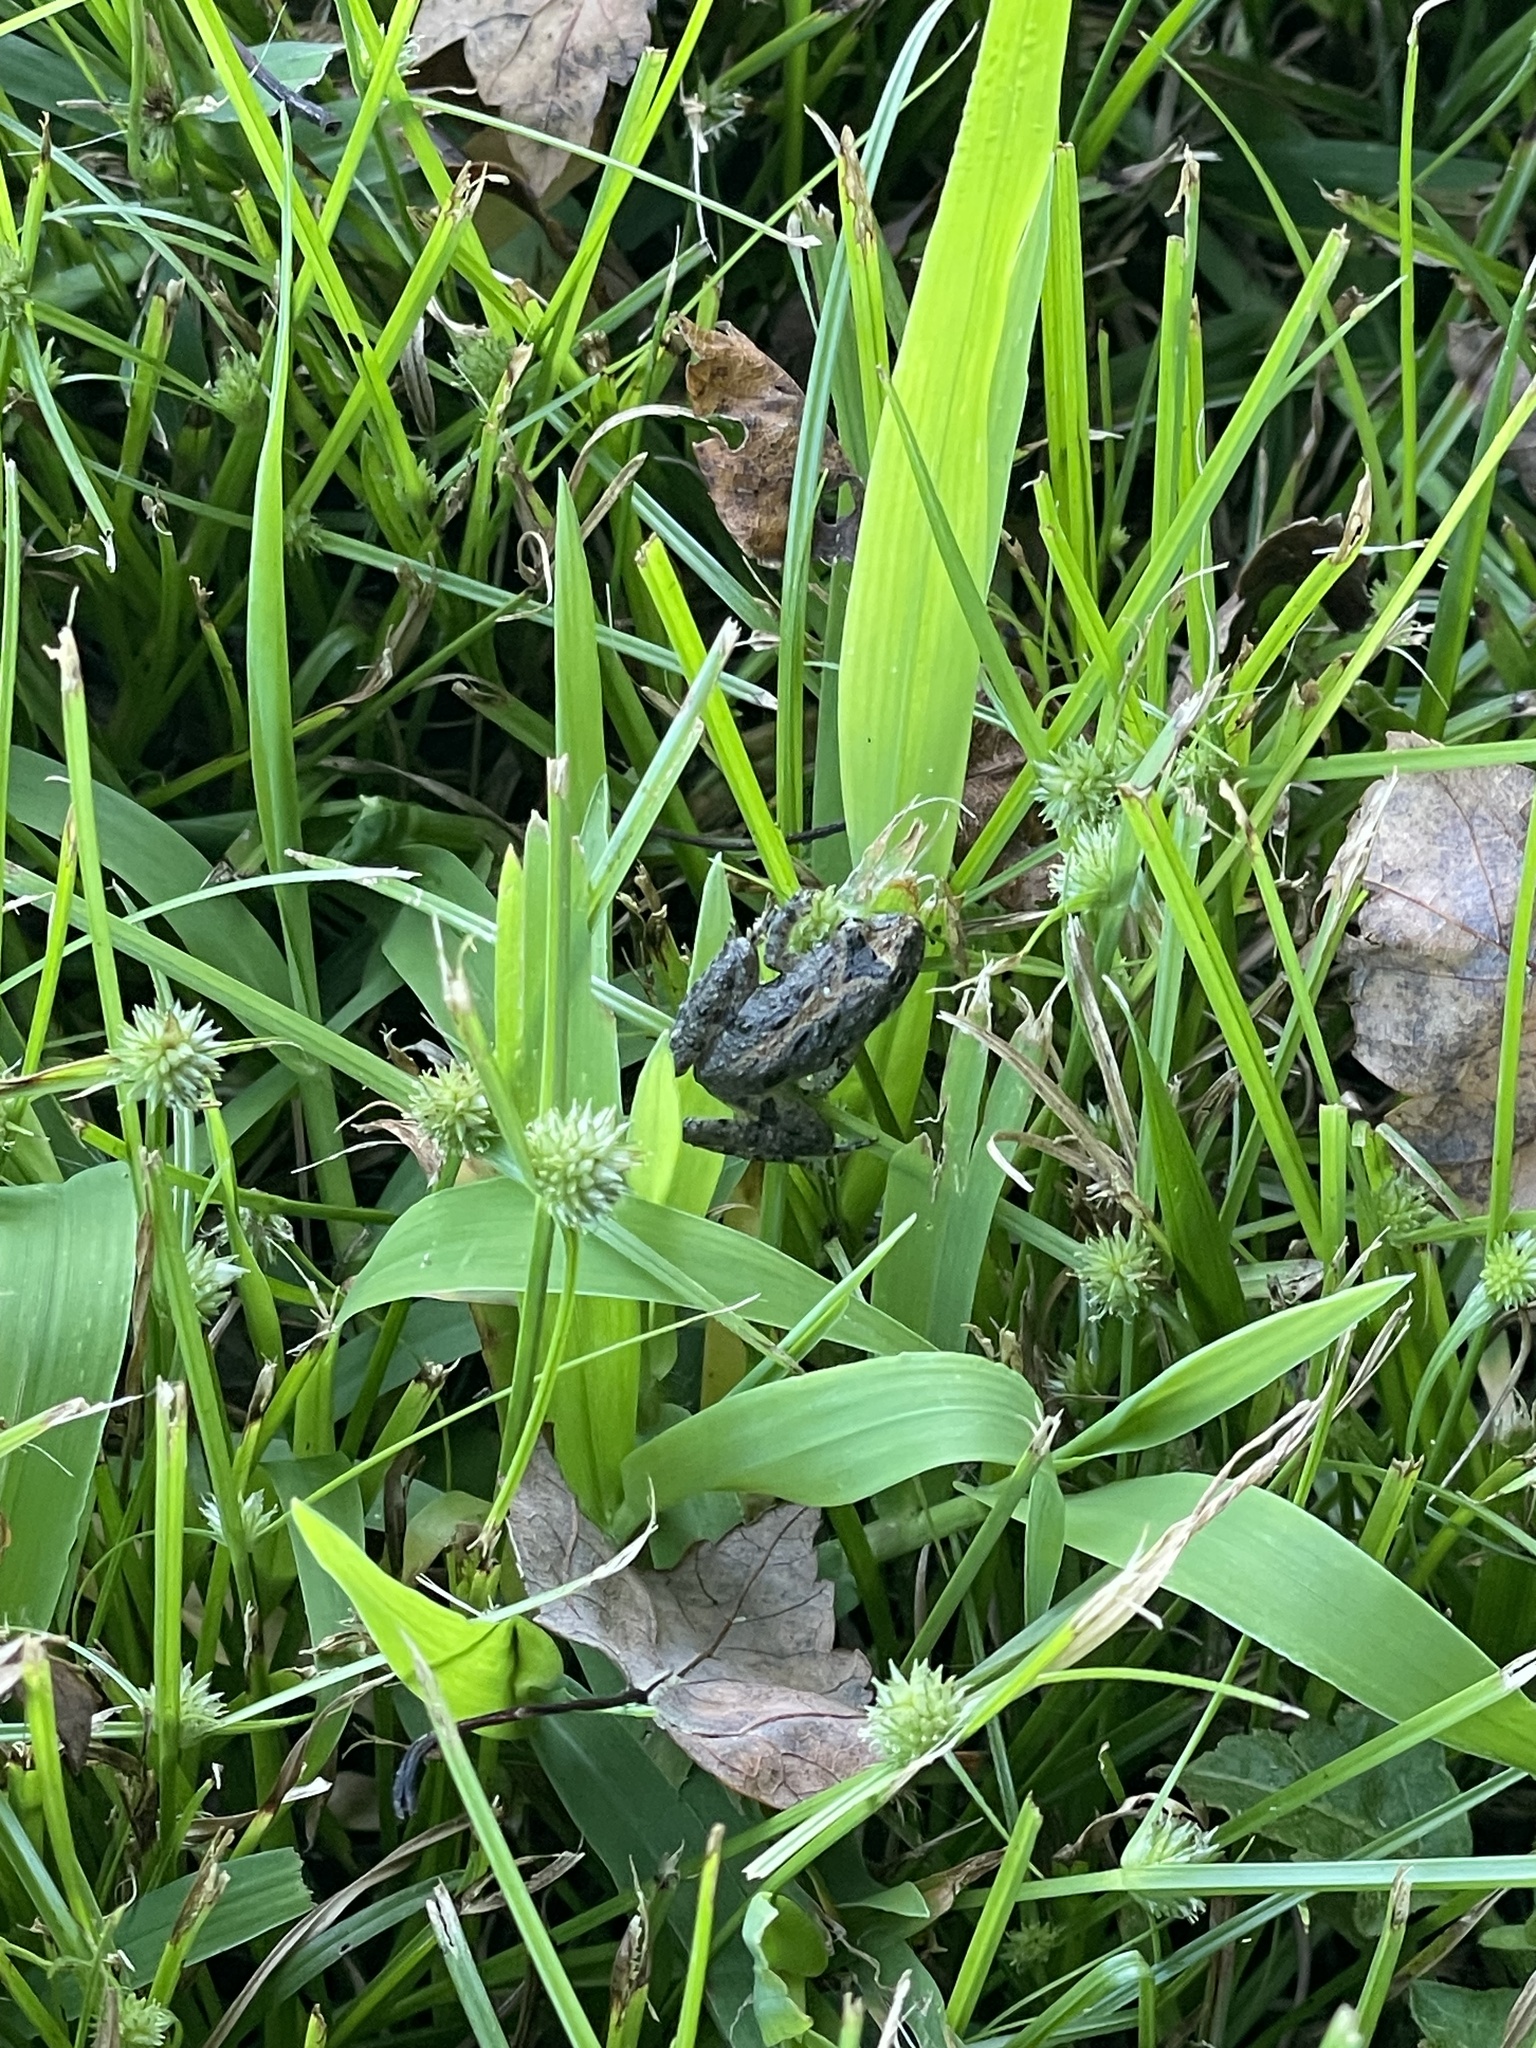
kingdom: Animalia
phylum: Chordata
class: Amphibia
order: Anura
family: Hylidae
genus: Acris
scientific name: Acris crepitans
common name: Northern cricket frog
